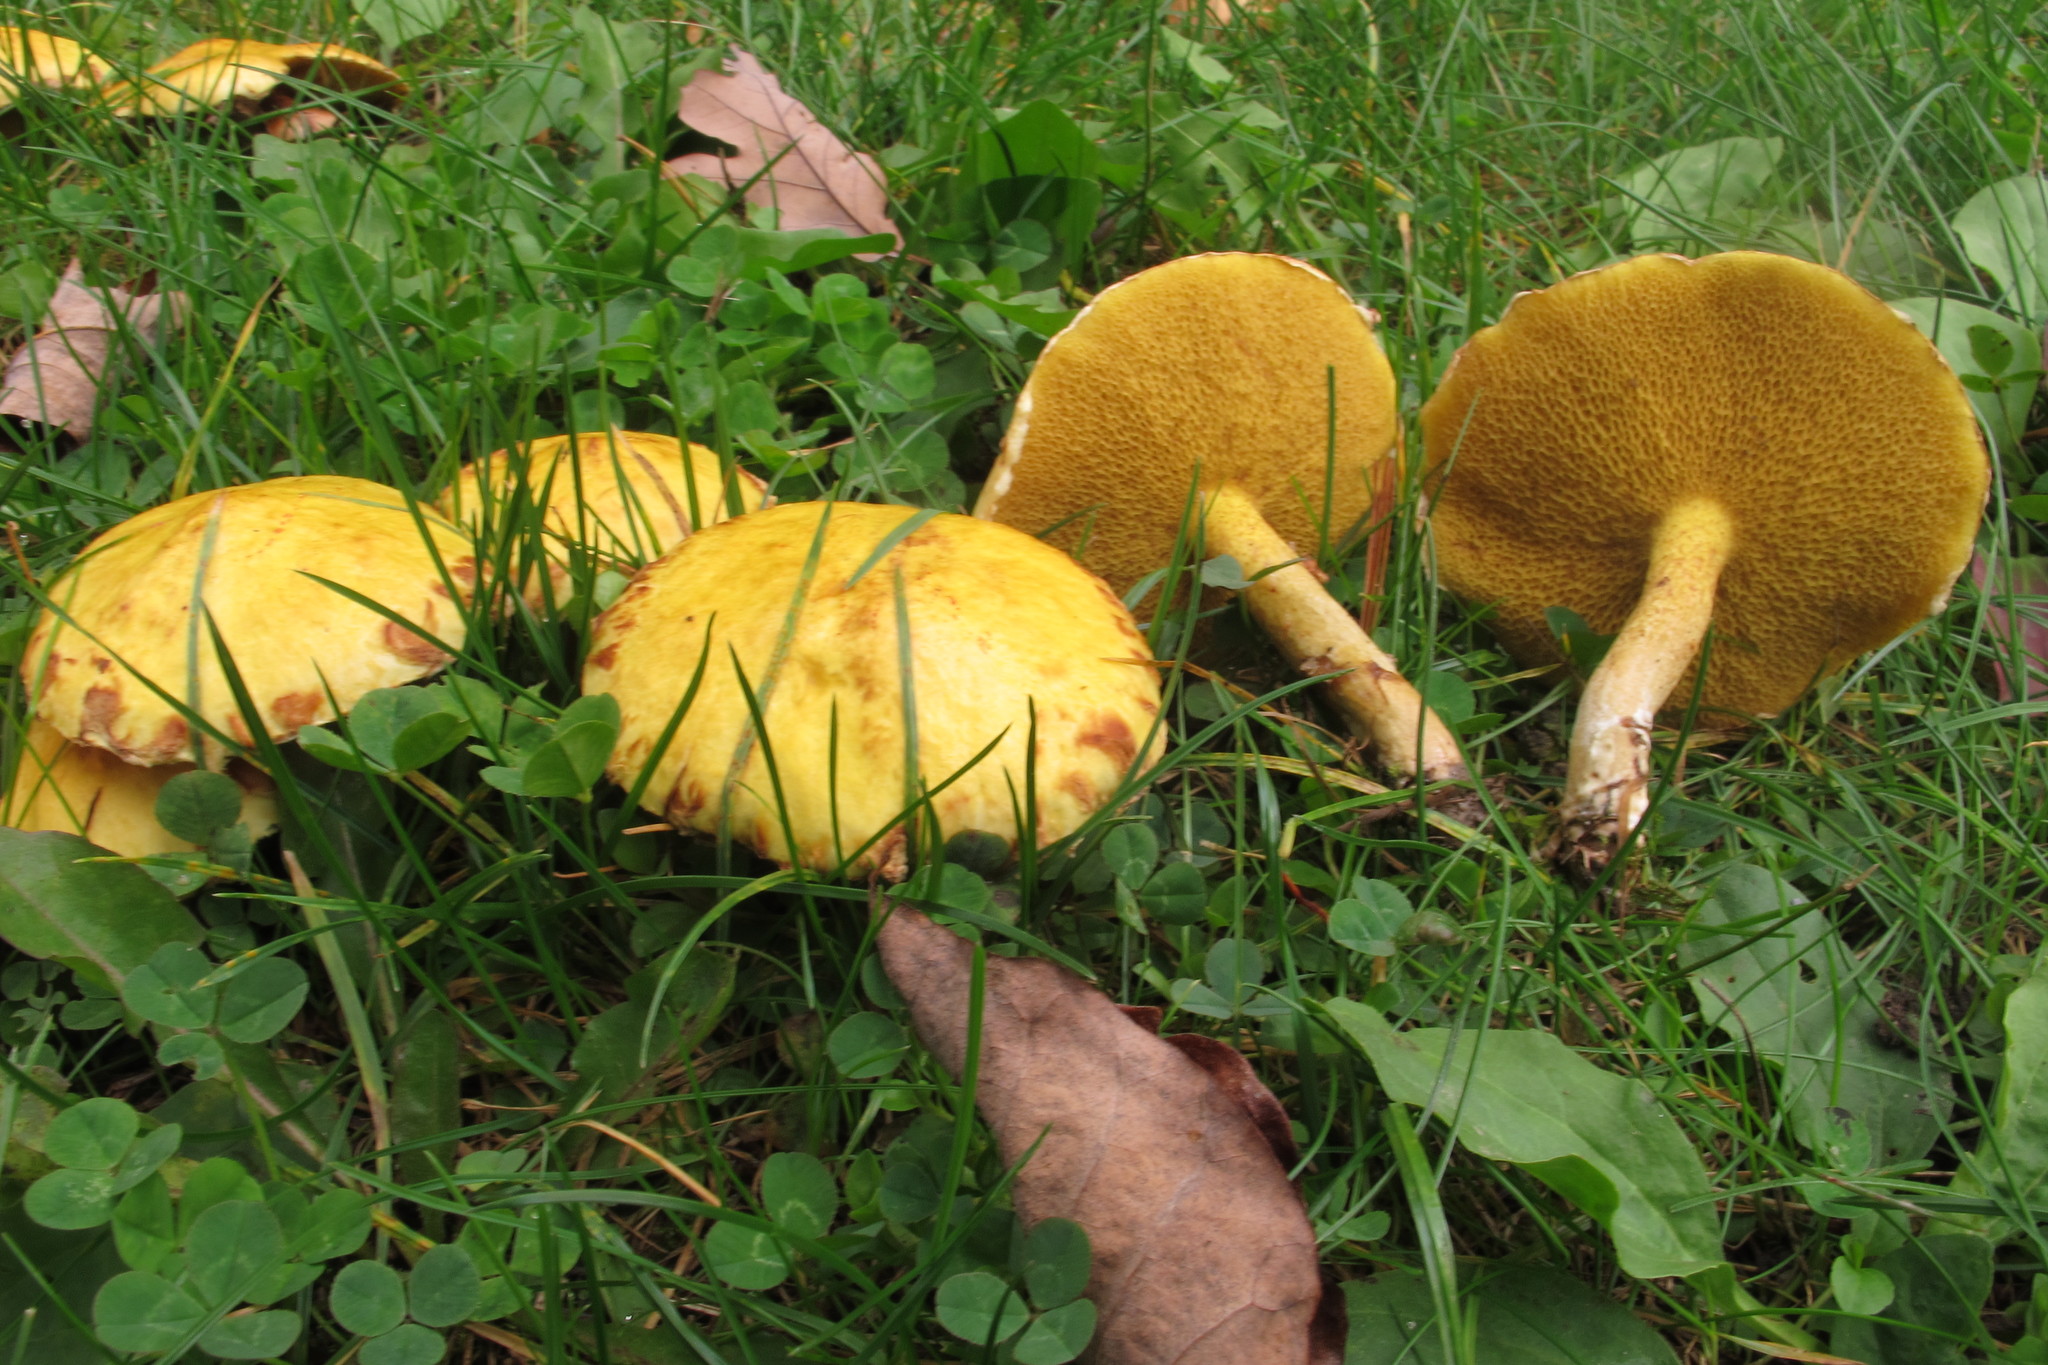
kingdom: Fungi
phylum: Basidiomycota
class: Agaricomycetes
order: Boletales
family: Suillaceae
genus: Suillus
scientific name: Suillus americanus
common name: Chicken fat mushroom
